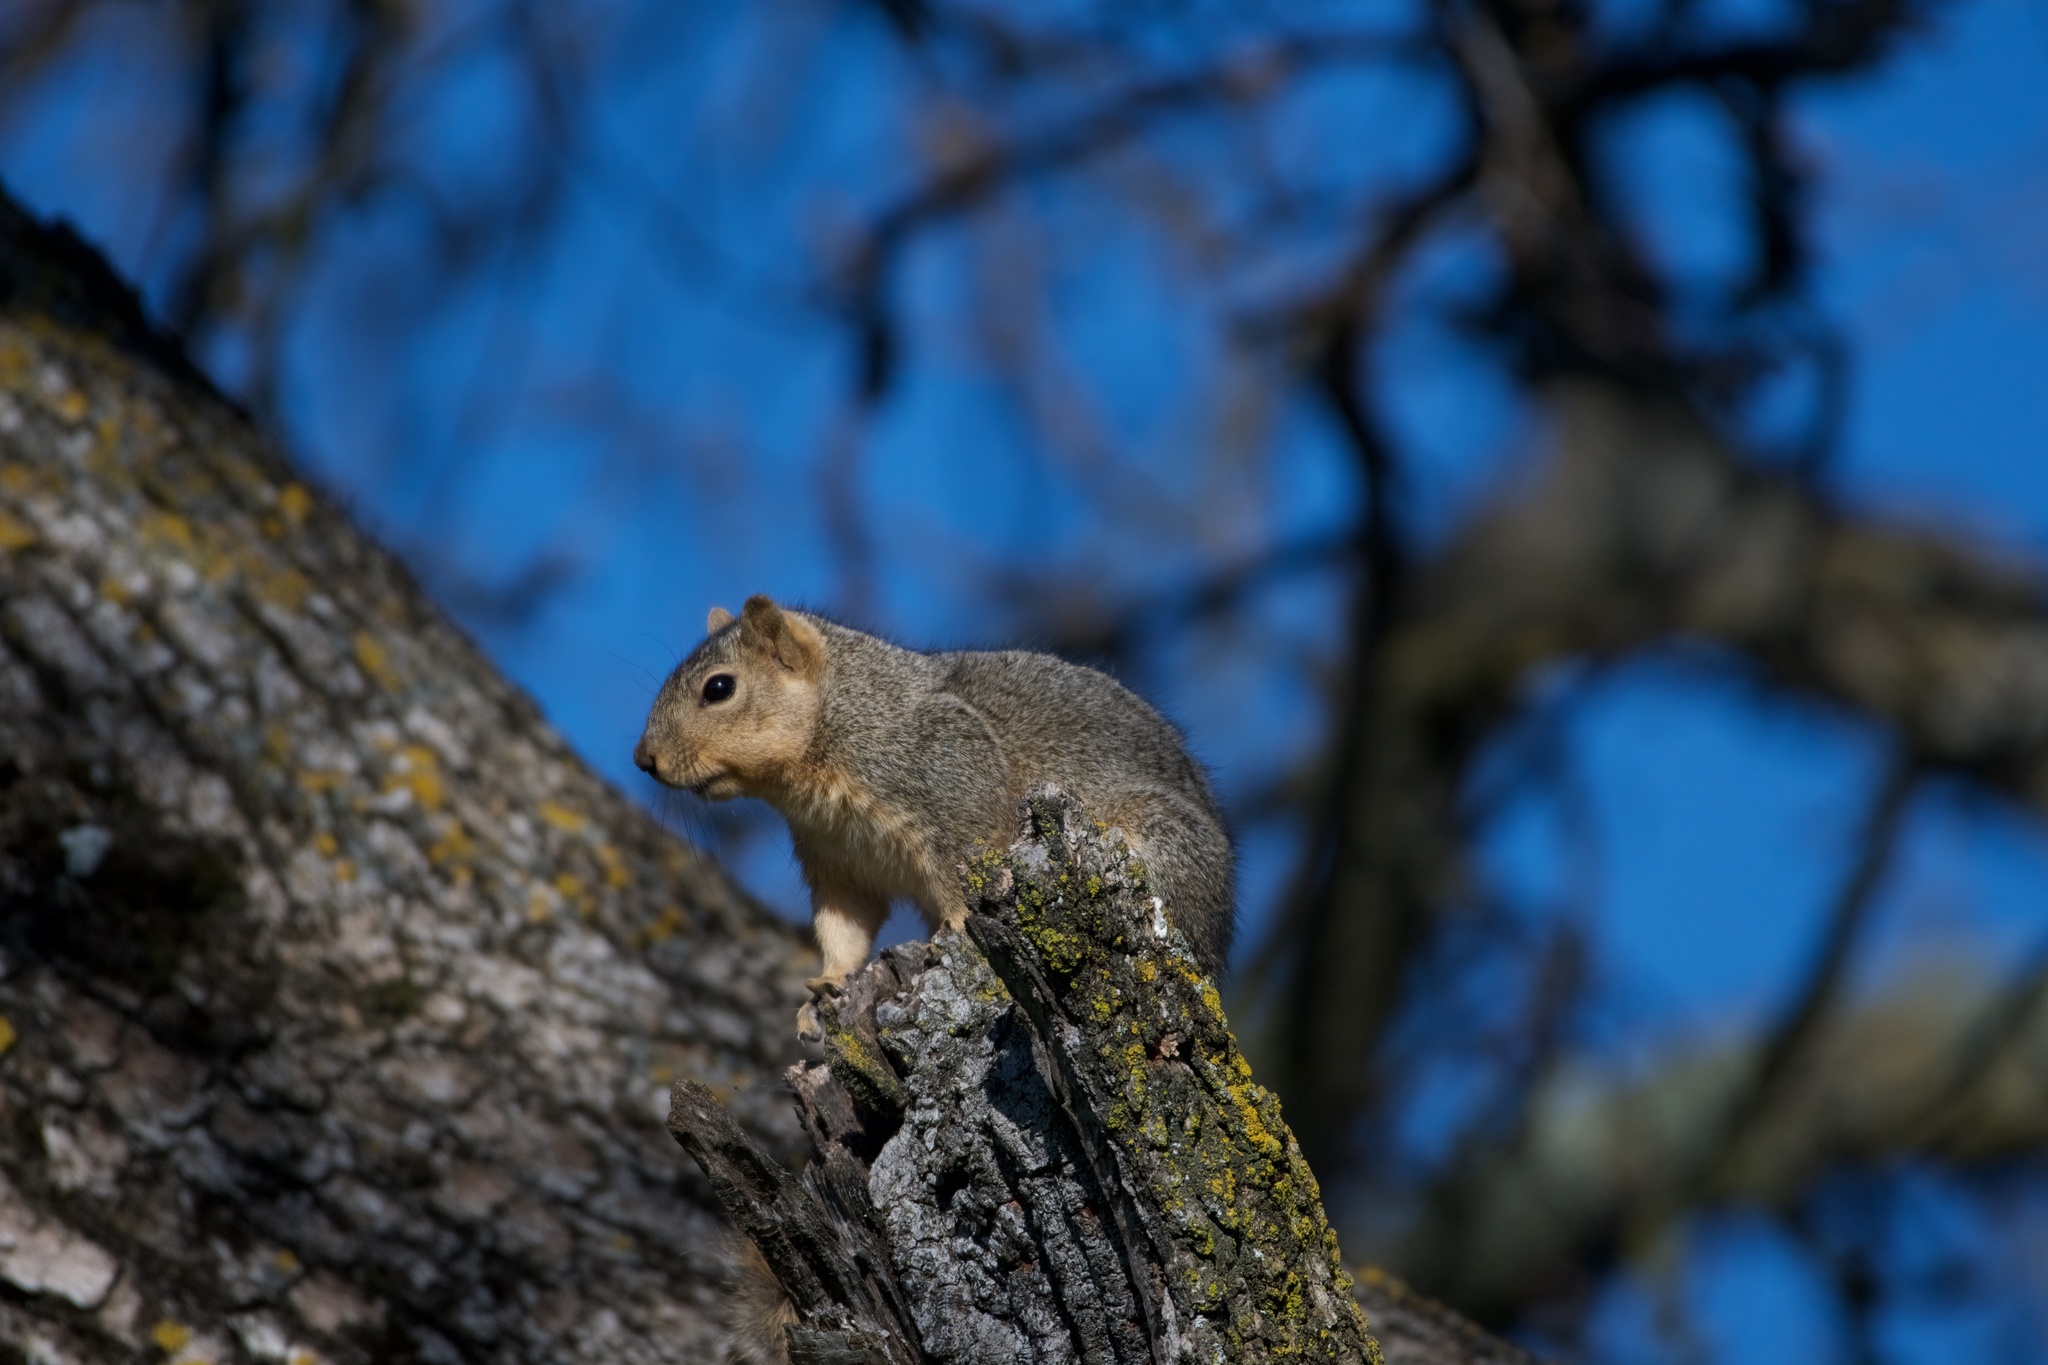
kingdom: Animalia
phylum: Chordata
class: Mammalia
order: Rodentia
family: Sciuridae
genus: Sciurus
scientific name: Sciurus niger
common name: Fox squirrel
